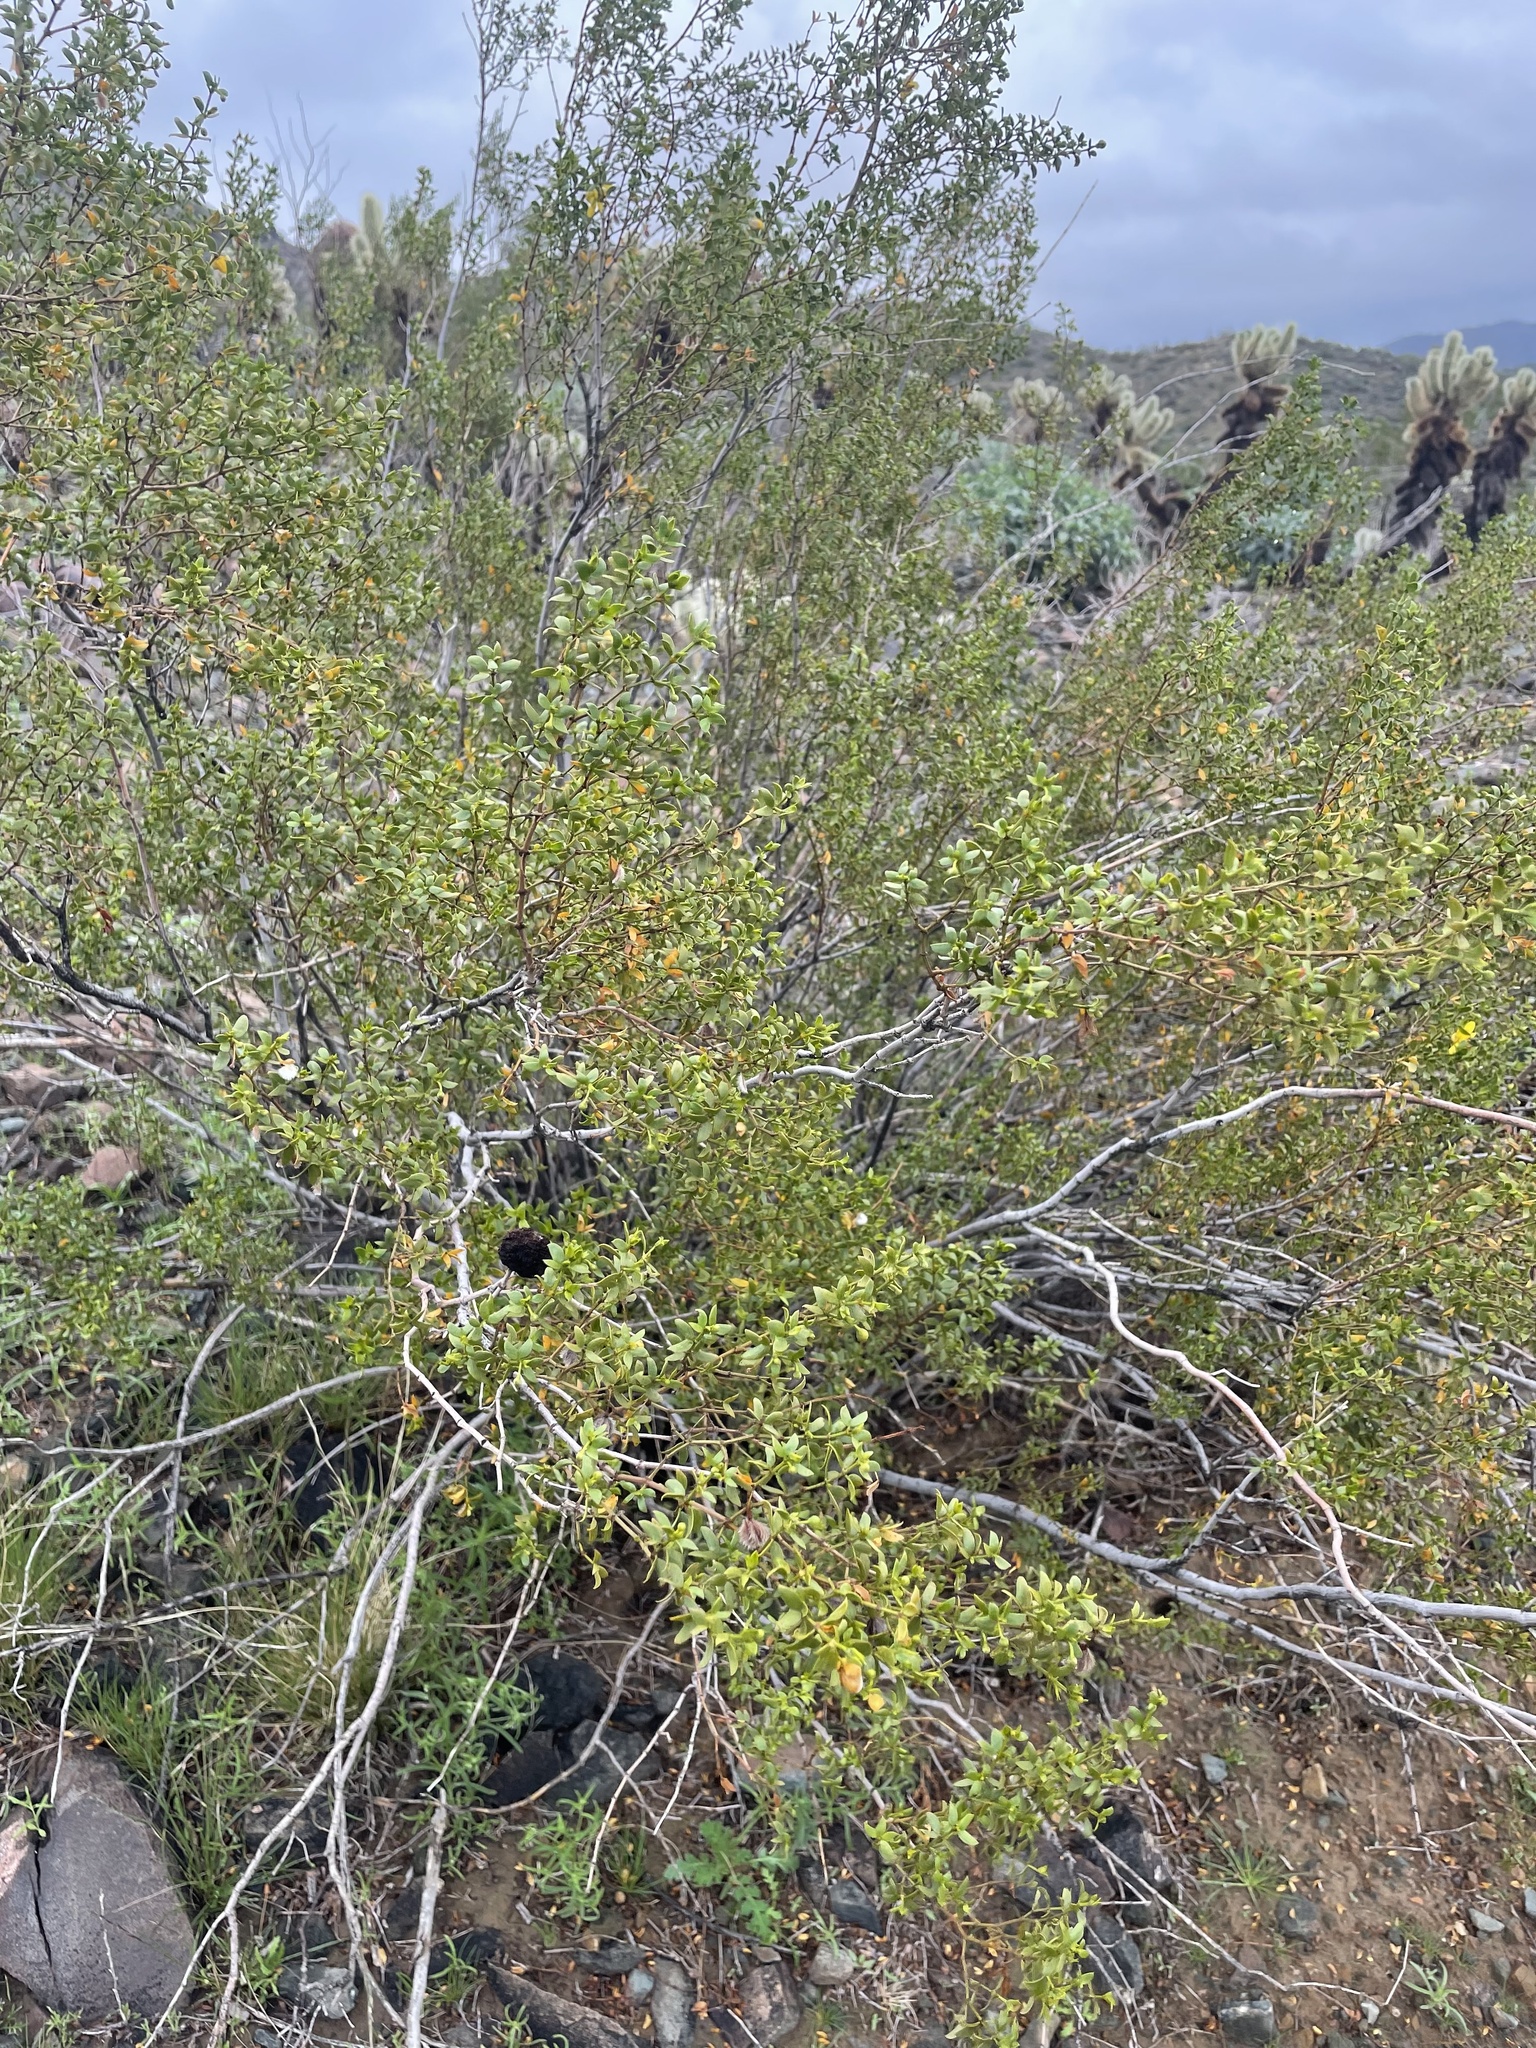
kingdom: Animalia
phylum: Arthropoda
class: Insecta
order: Diptera
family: Cecidomyiidae
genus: Asphondylia
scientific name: Asphondylia auripila
